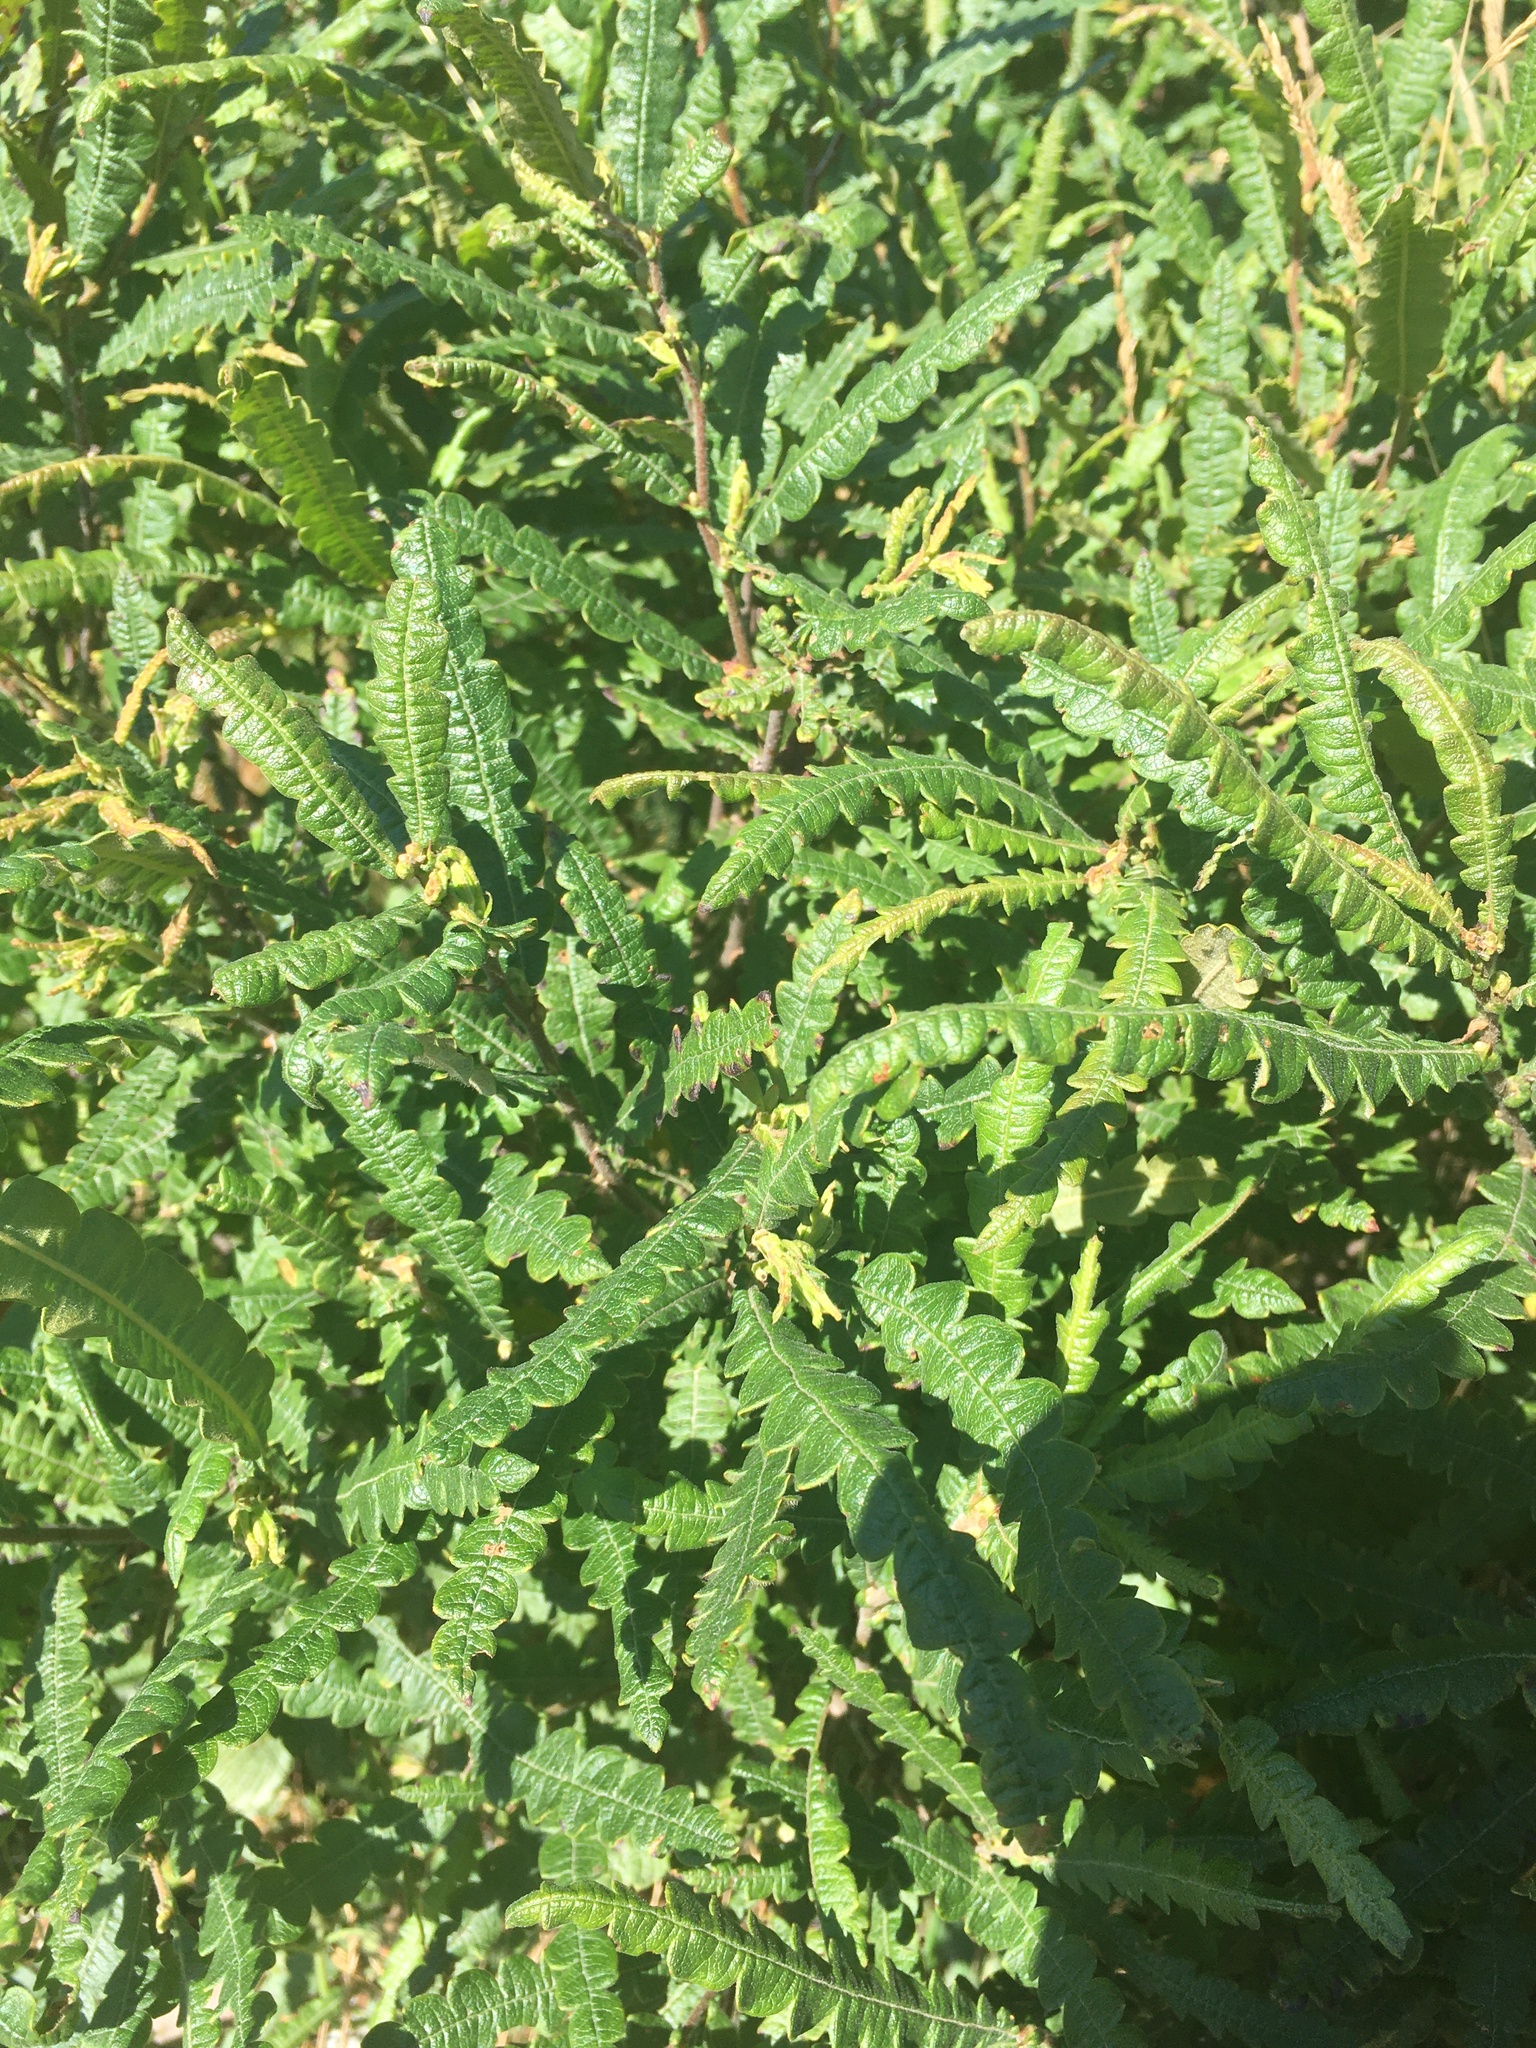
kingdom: Plantae
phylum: Tracheophyta
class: Magnoliopsida
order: Fagales
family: Myricaceae
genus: Comptonia
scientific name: Comptonia peregrina
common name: Sweet-fern
